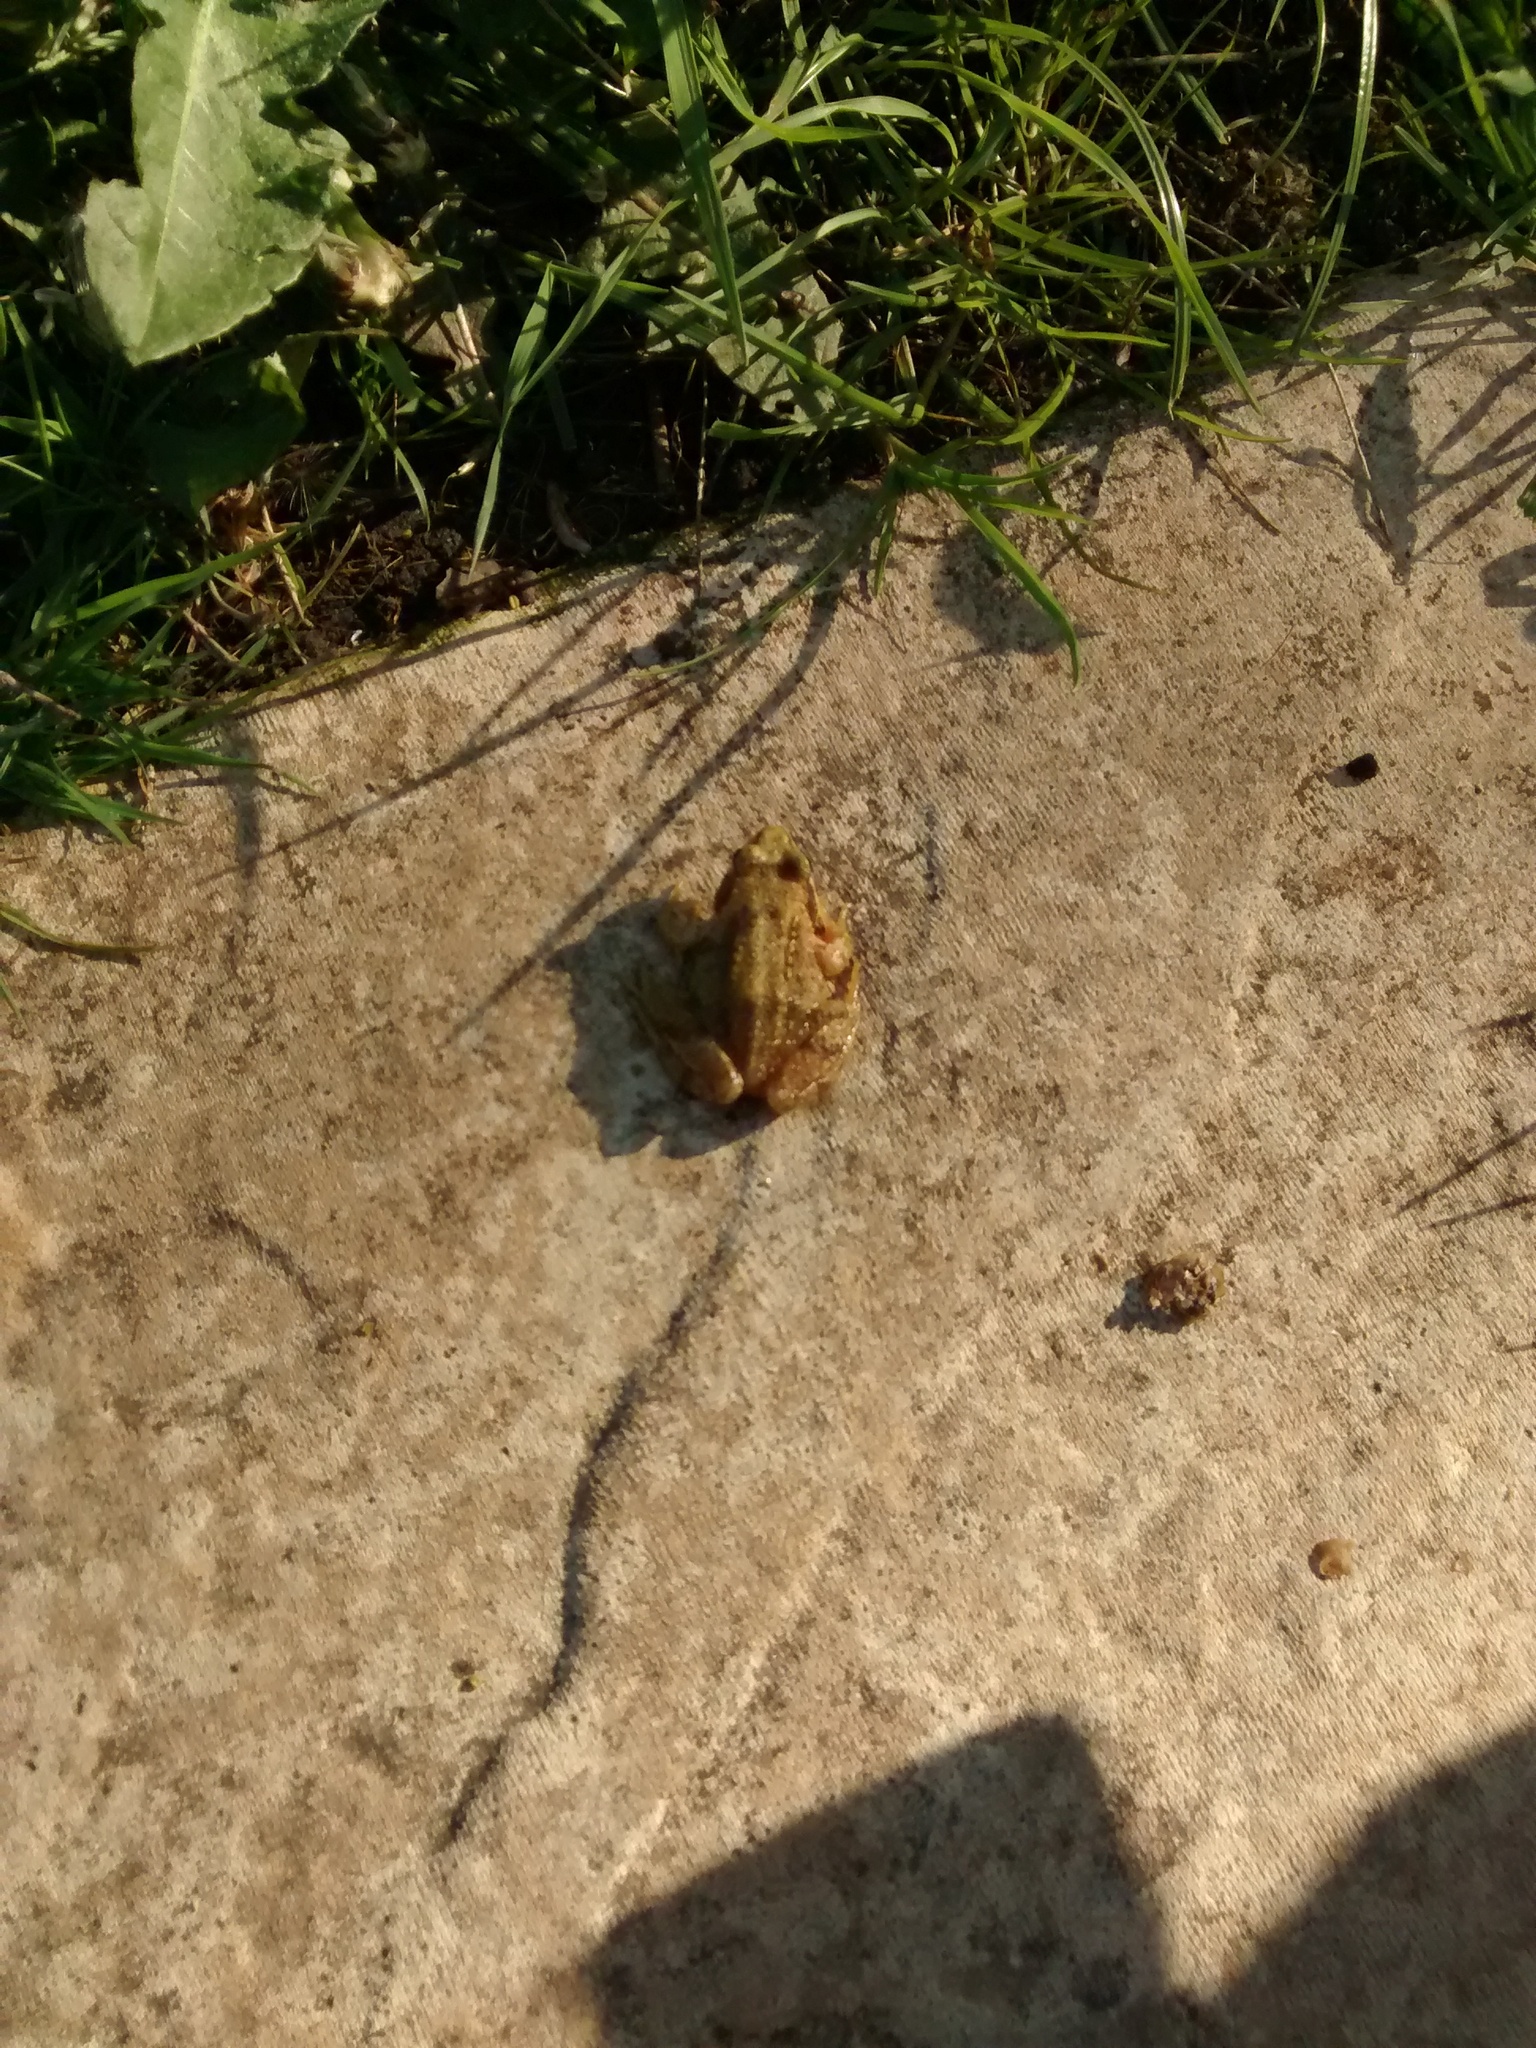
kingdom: Animalia
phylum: Chordata
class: Amphibia
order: Anura
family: Ranidae
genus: Rana
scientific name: Rana temporaria
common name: Common frog
